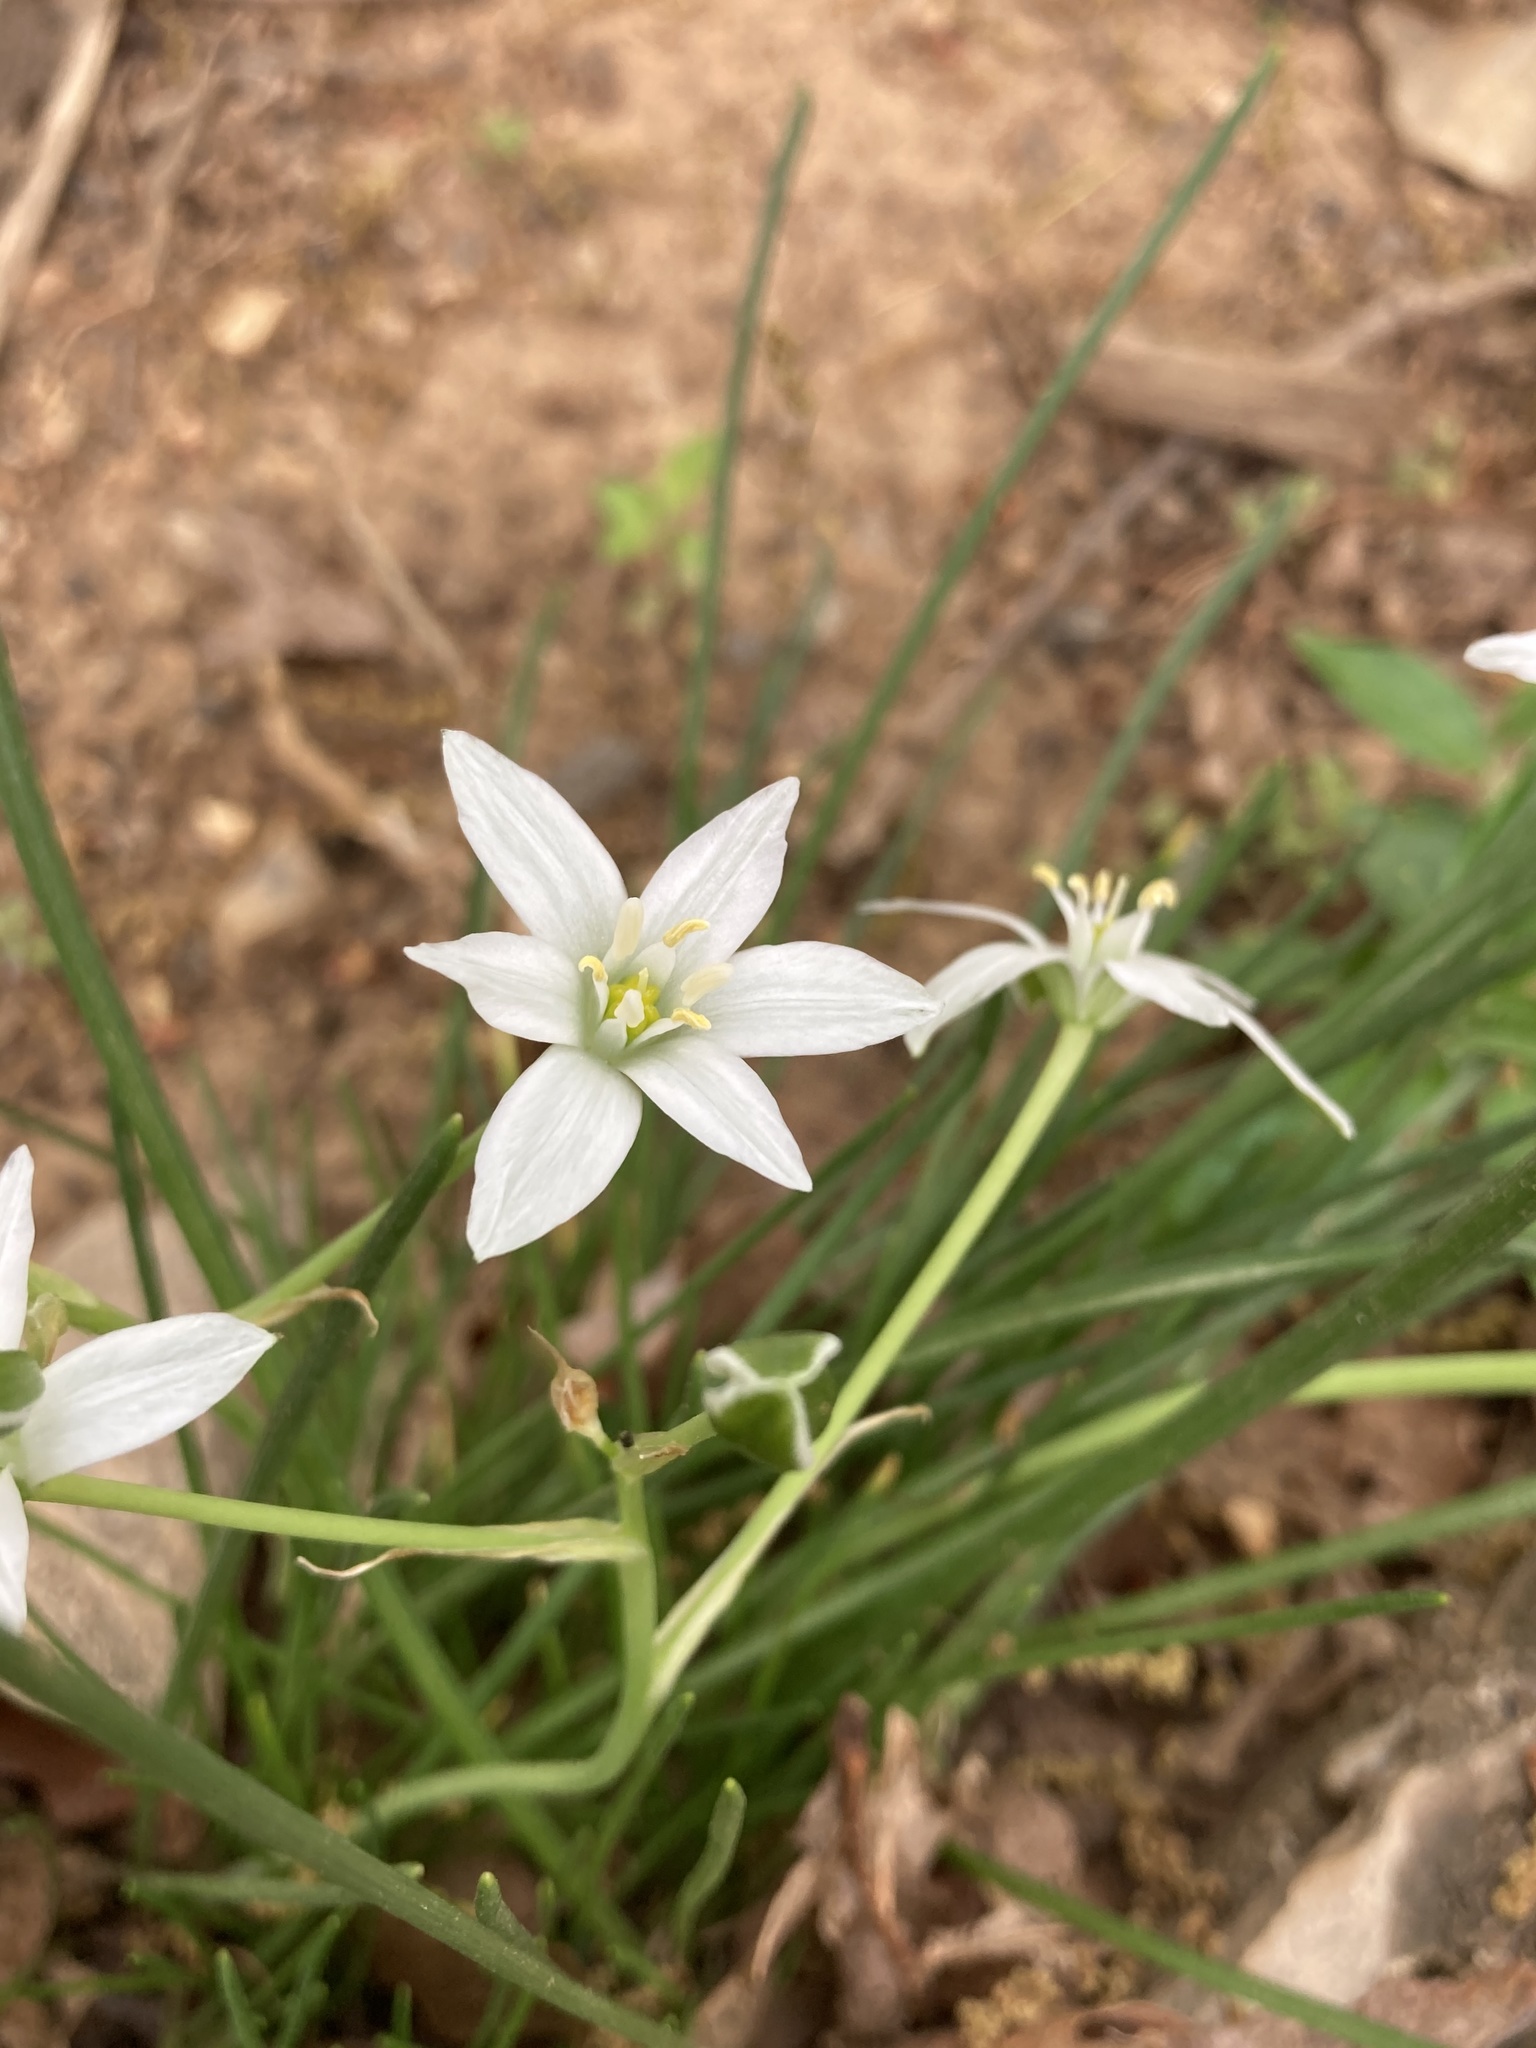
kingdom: Plantae
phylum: Tracheophyta
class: Liliopsida
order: Asparagales
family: Asparagaceae
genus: Ornithogalum
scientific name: Ornithogalum umbellatum
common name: Garden star-of-bethlehem
